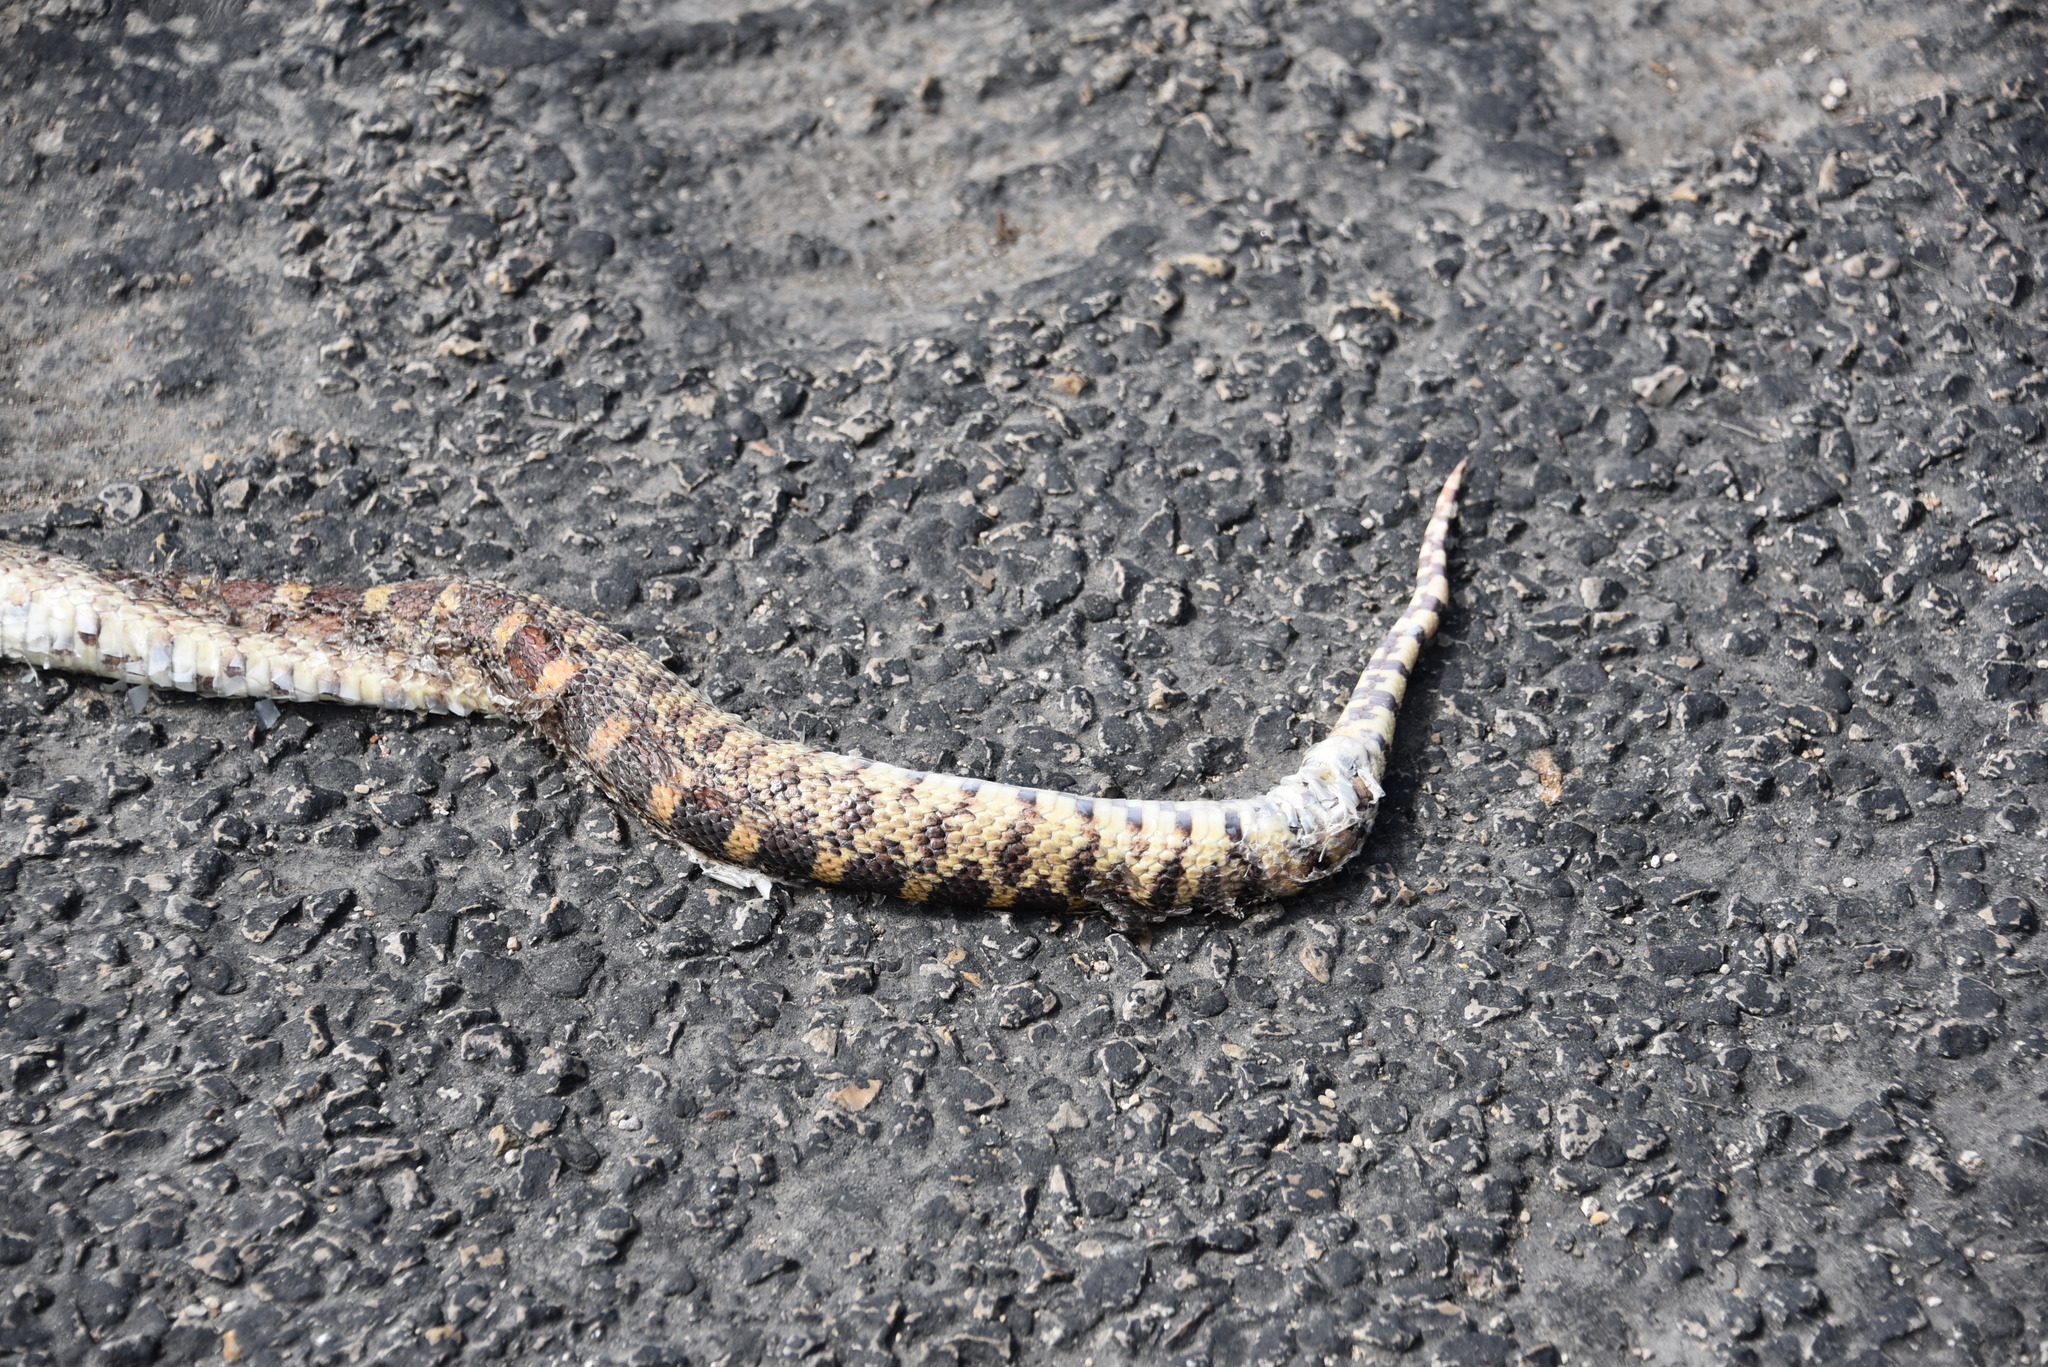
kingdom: Animalia
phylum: Chordata
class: Squamata
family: Colubridae
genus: Pituophis
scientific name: Pituophis catenifer
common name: Gopher snake
